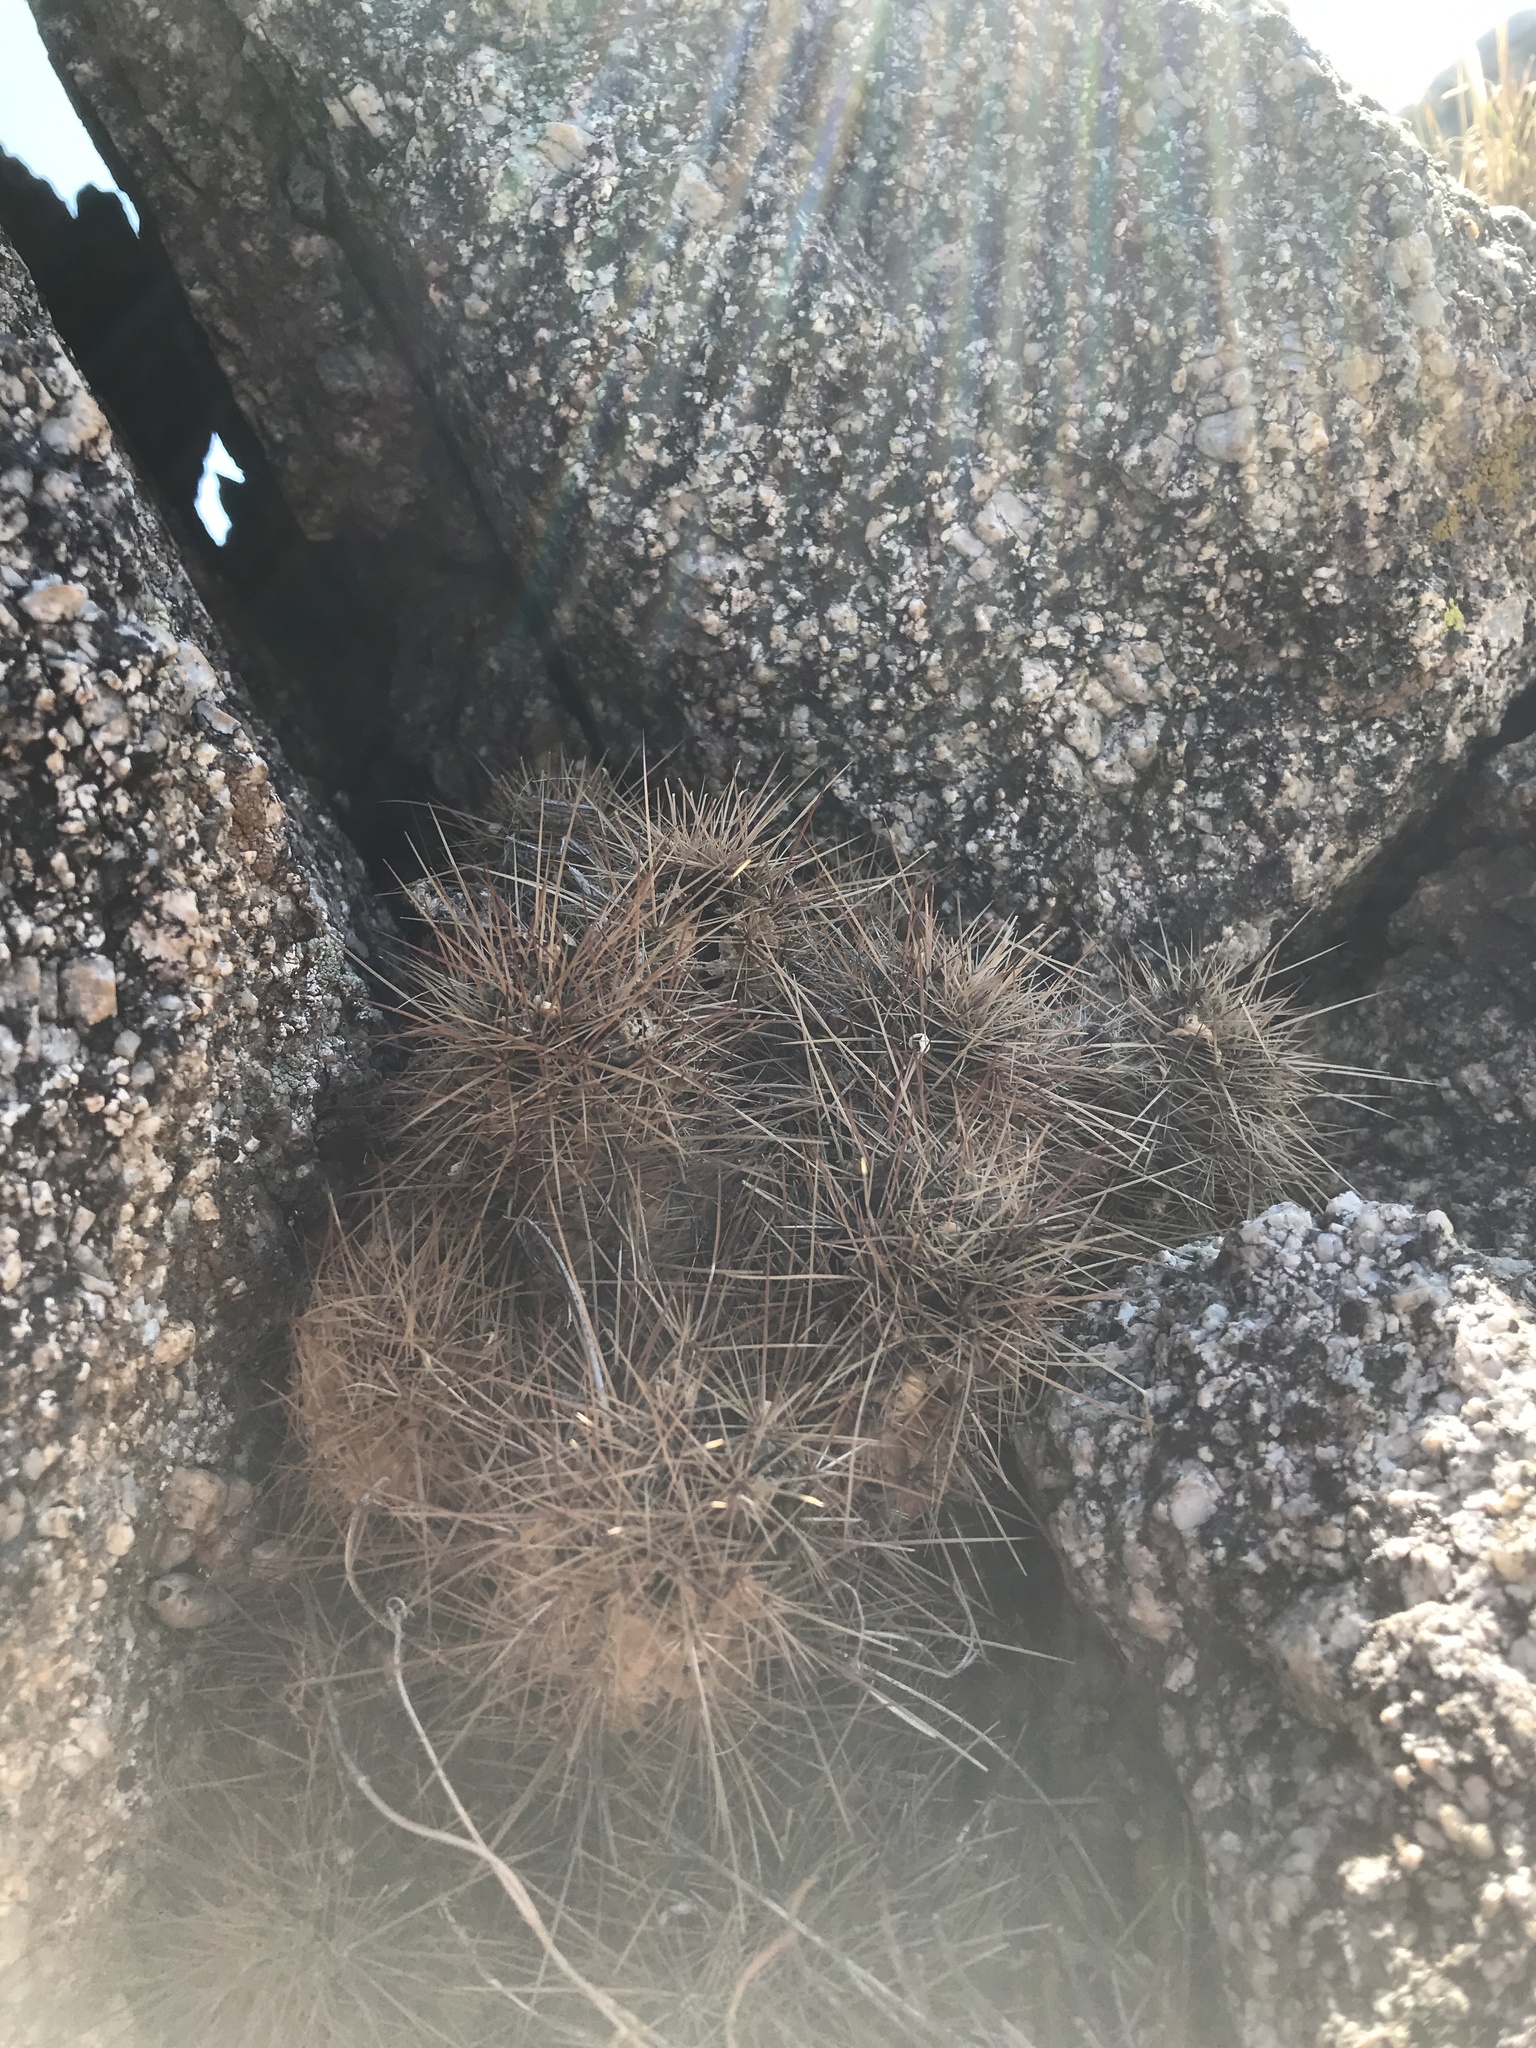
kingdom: Plantae
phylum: Tracheophyta
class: Magnoliopsida
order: Caryophyllales
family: Cactaceae
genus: Echinocereus
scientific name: Echinocereus coccineus
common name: Scarlet hedgehog cactus
